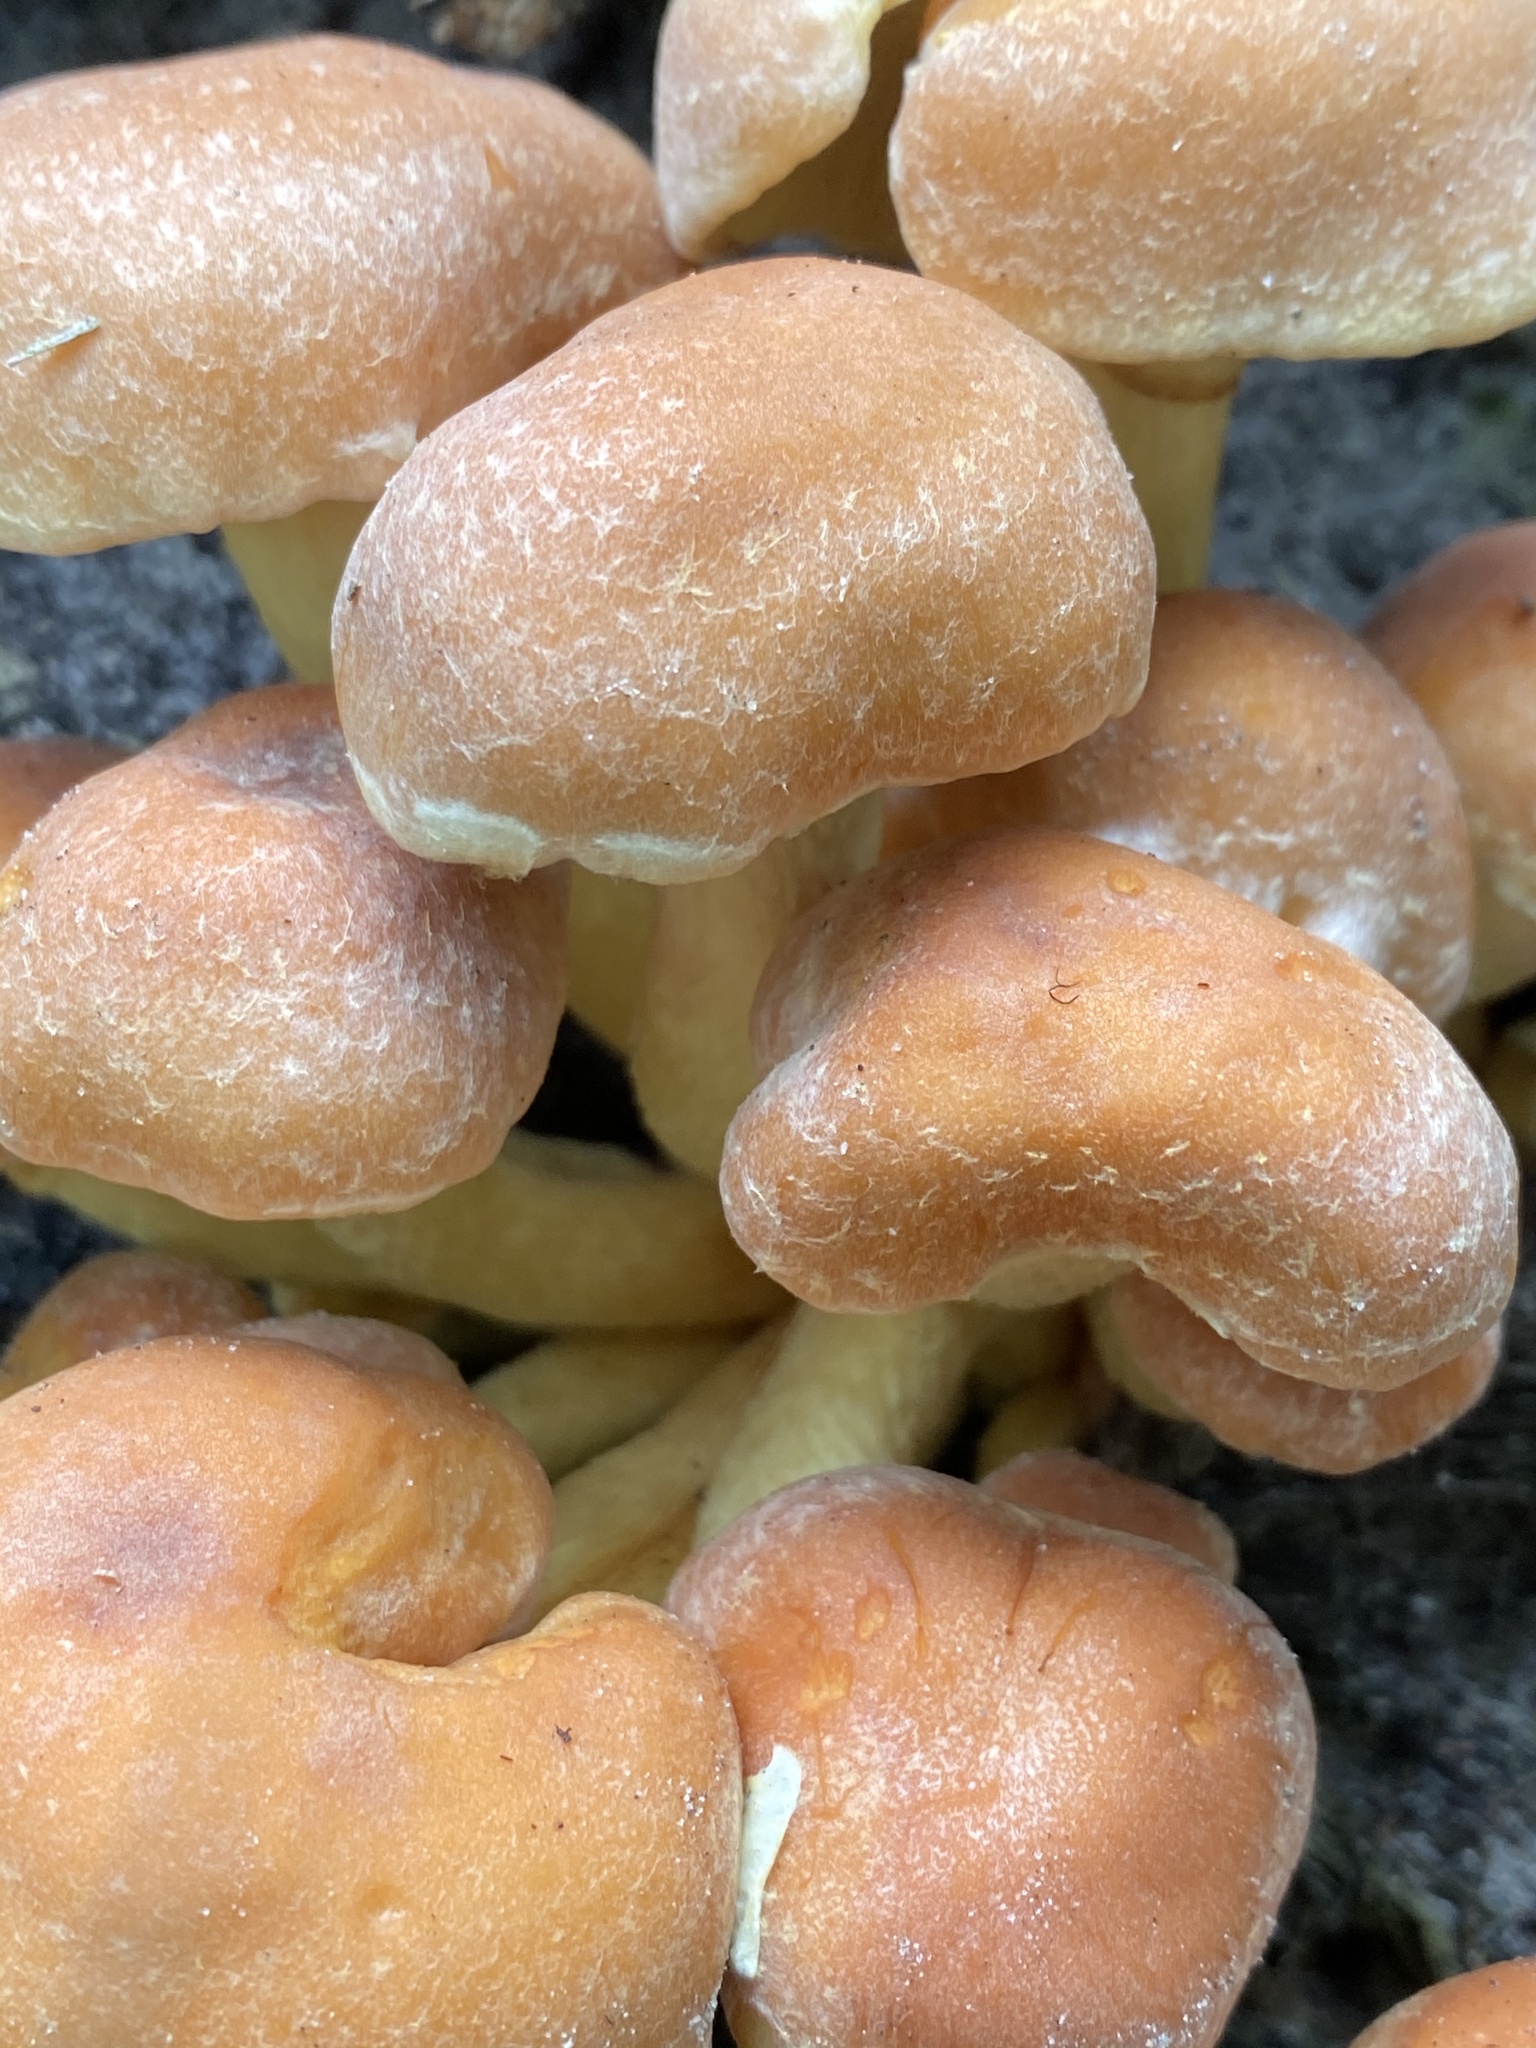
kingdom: Fungi
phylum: Basidiomycota
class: Agaricomycetes
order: Agaricales
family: Strophariaceae
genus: Hypholoma
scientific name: Hypholoma fasciculare
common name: Sulphur tuft
